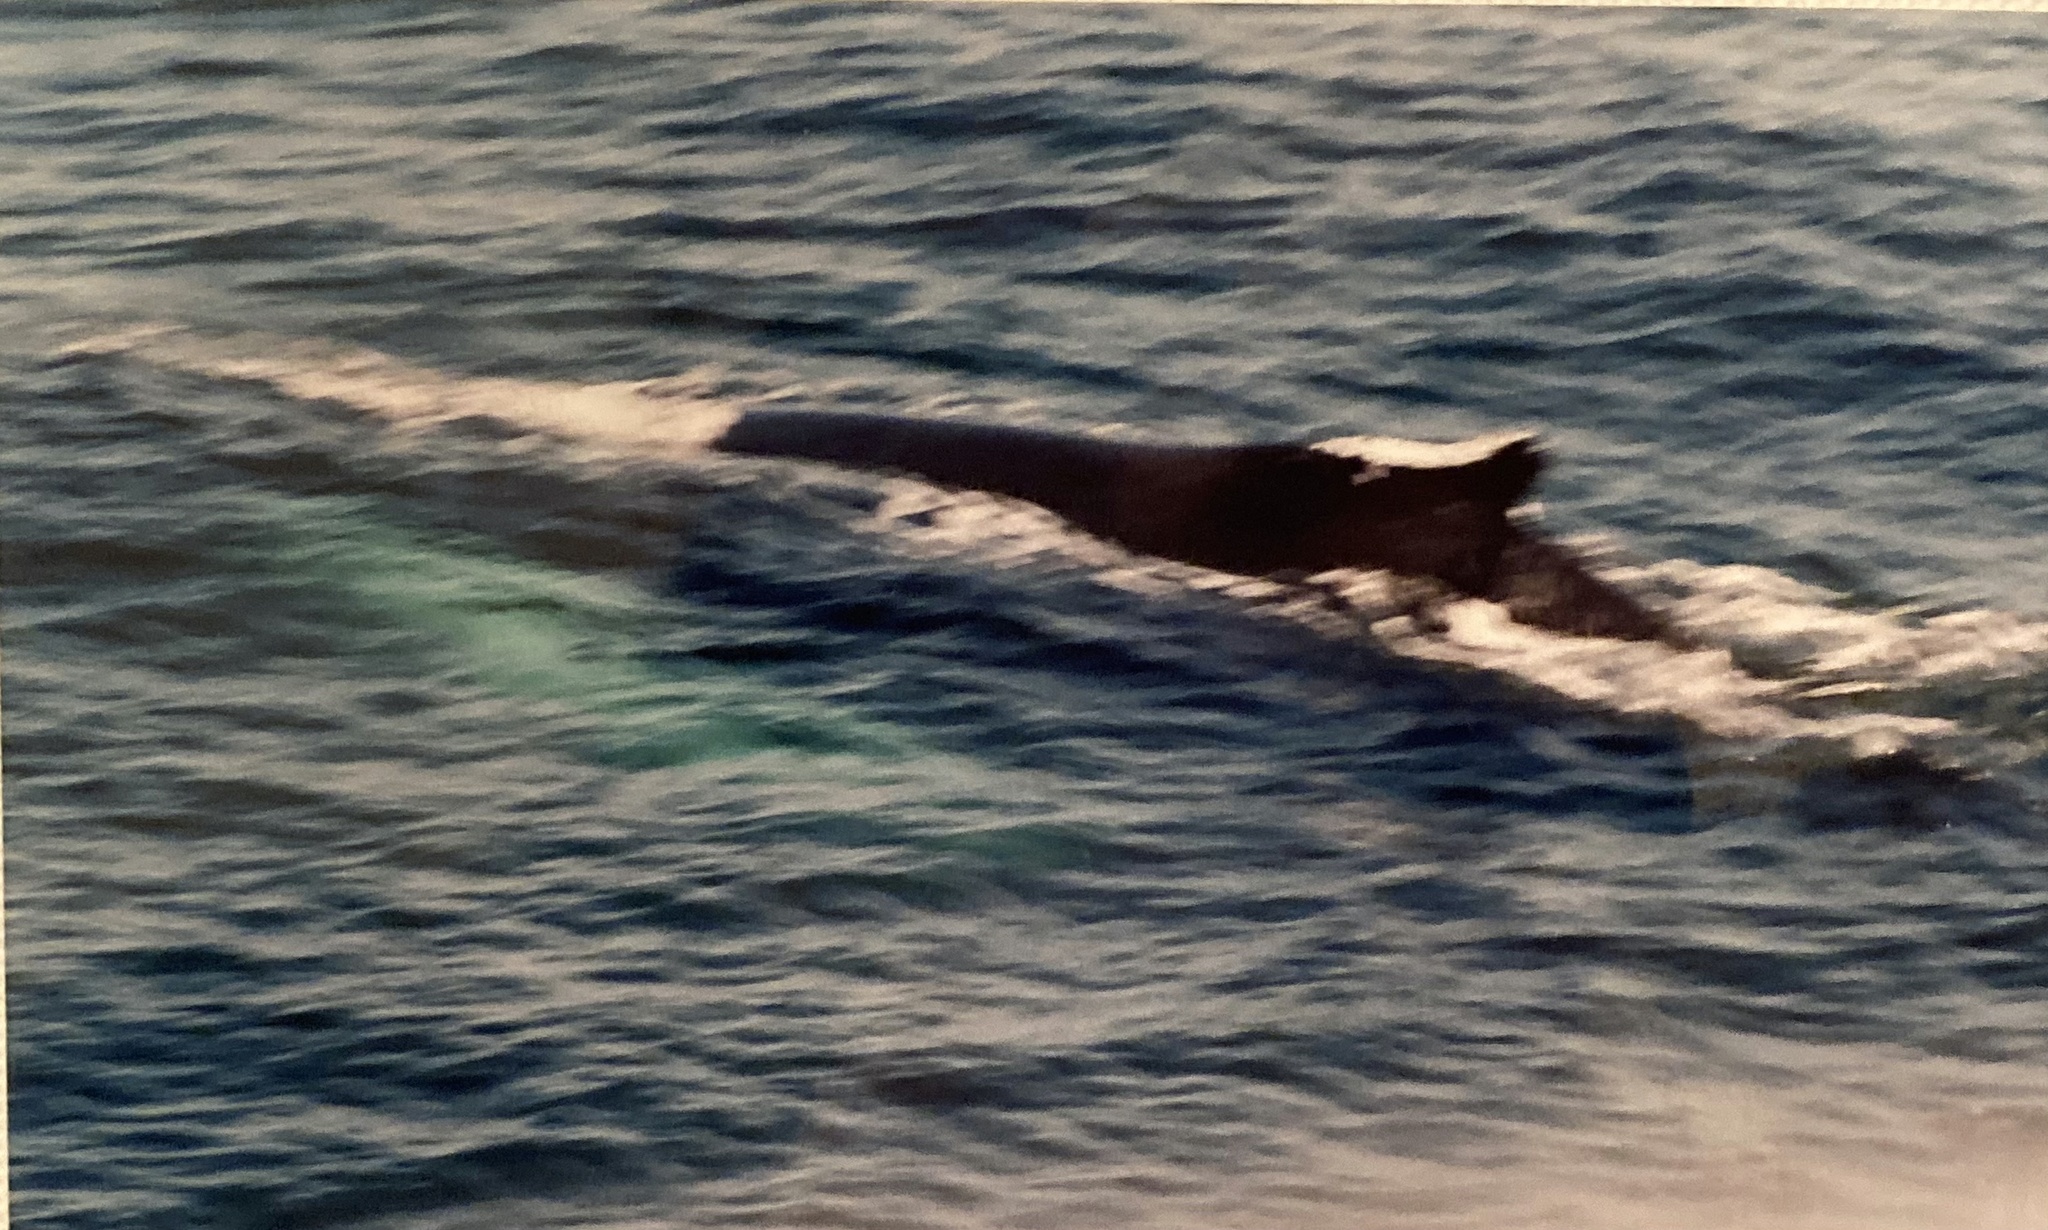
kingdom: Animalia
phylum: Chordata
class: Mammalia
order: Cetacea
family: Balaenopteridae
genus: Megaptera
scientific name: Megaptera novaeangliae
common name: Humpback whale
